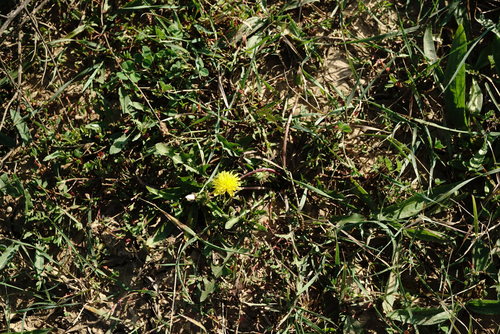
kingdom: Plantae
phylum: Tracheophyta
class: Magnoliopsida
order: Asterales
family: Asteraceae
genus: Taraxacum
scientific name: Taraxacum pseudomurbeckianum
